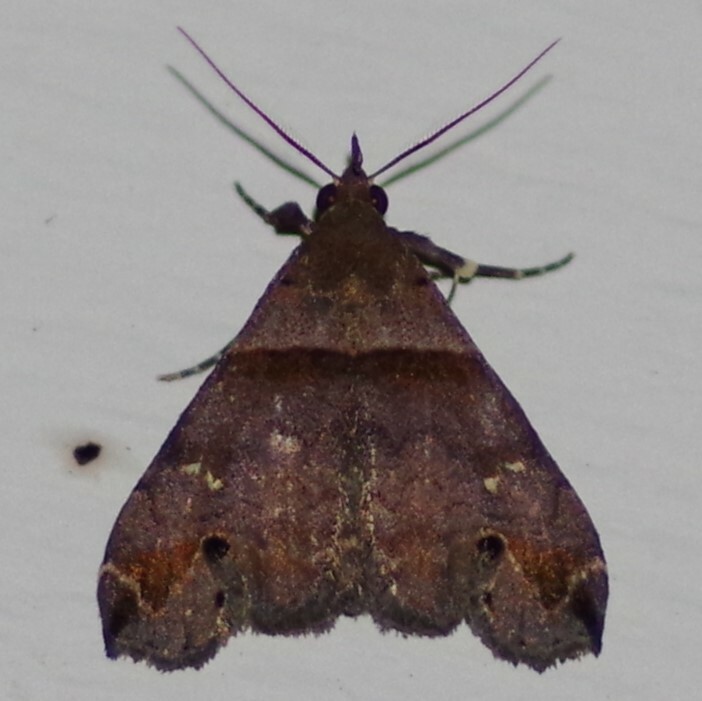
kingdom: Animalia
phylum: Arthropoda
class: Insecta
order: Lepidoptera
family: Erebidae
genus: Lascoria
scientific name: Lascoria ambigualis
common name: Ambiguous moth
